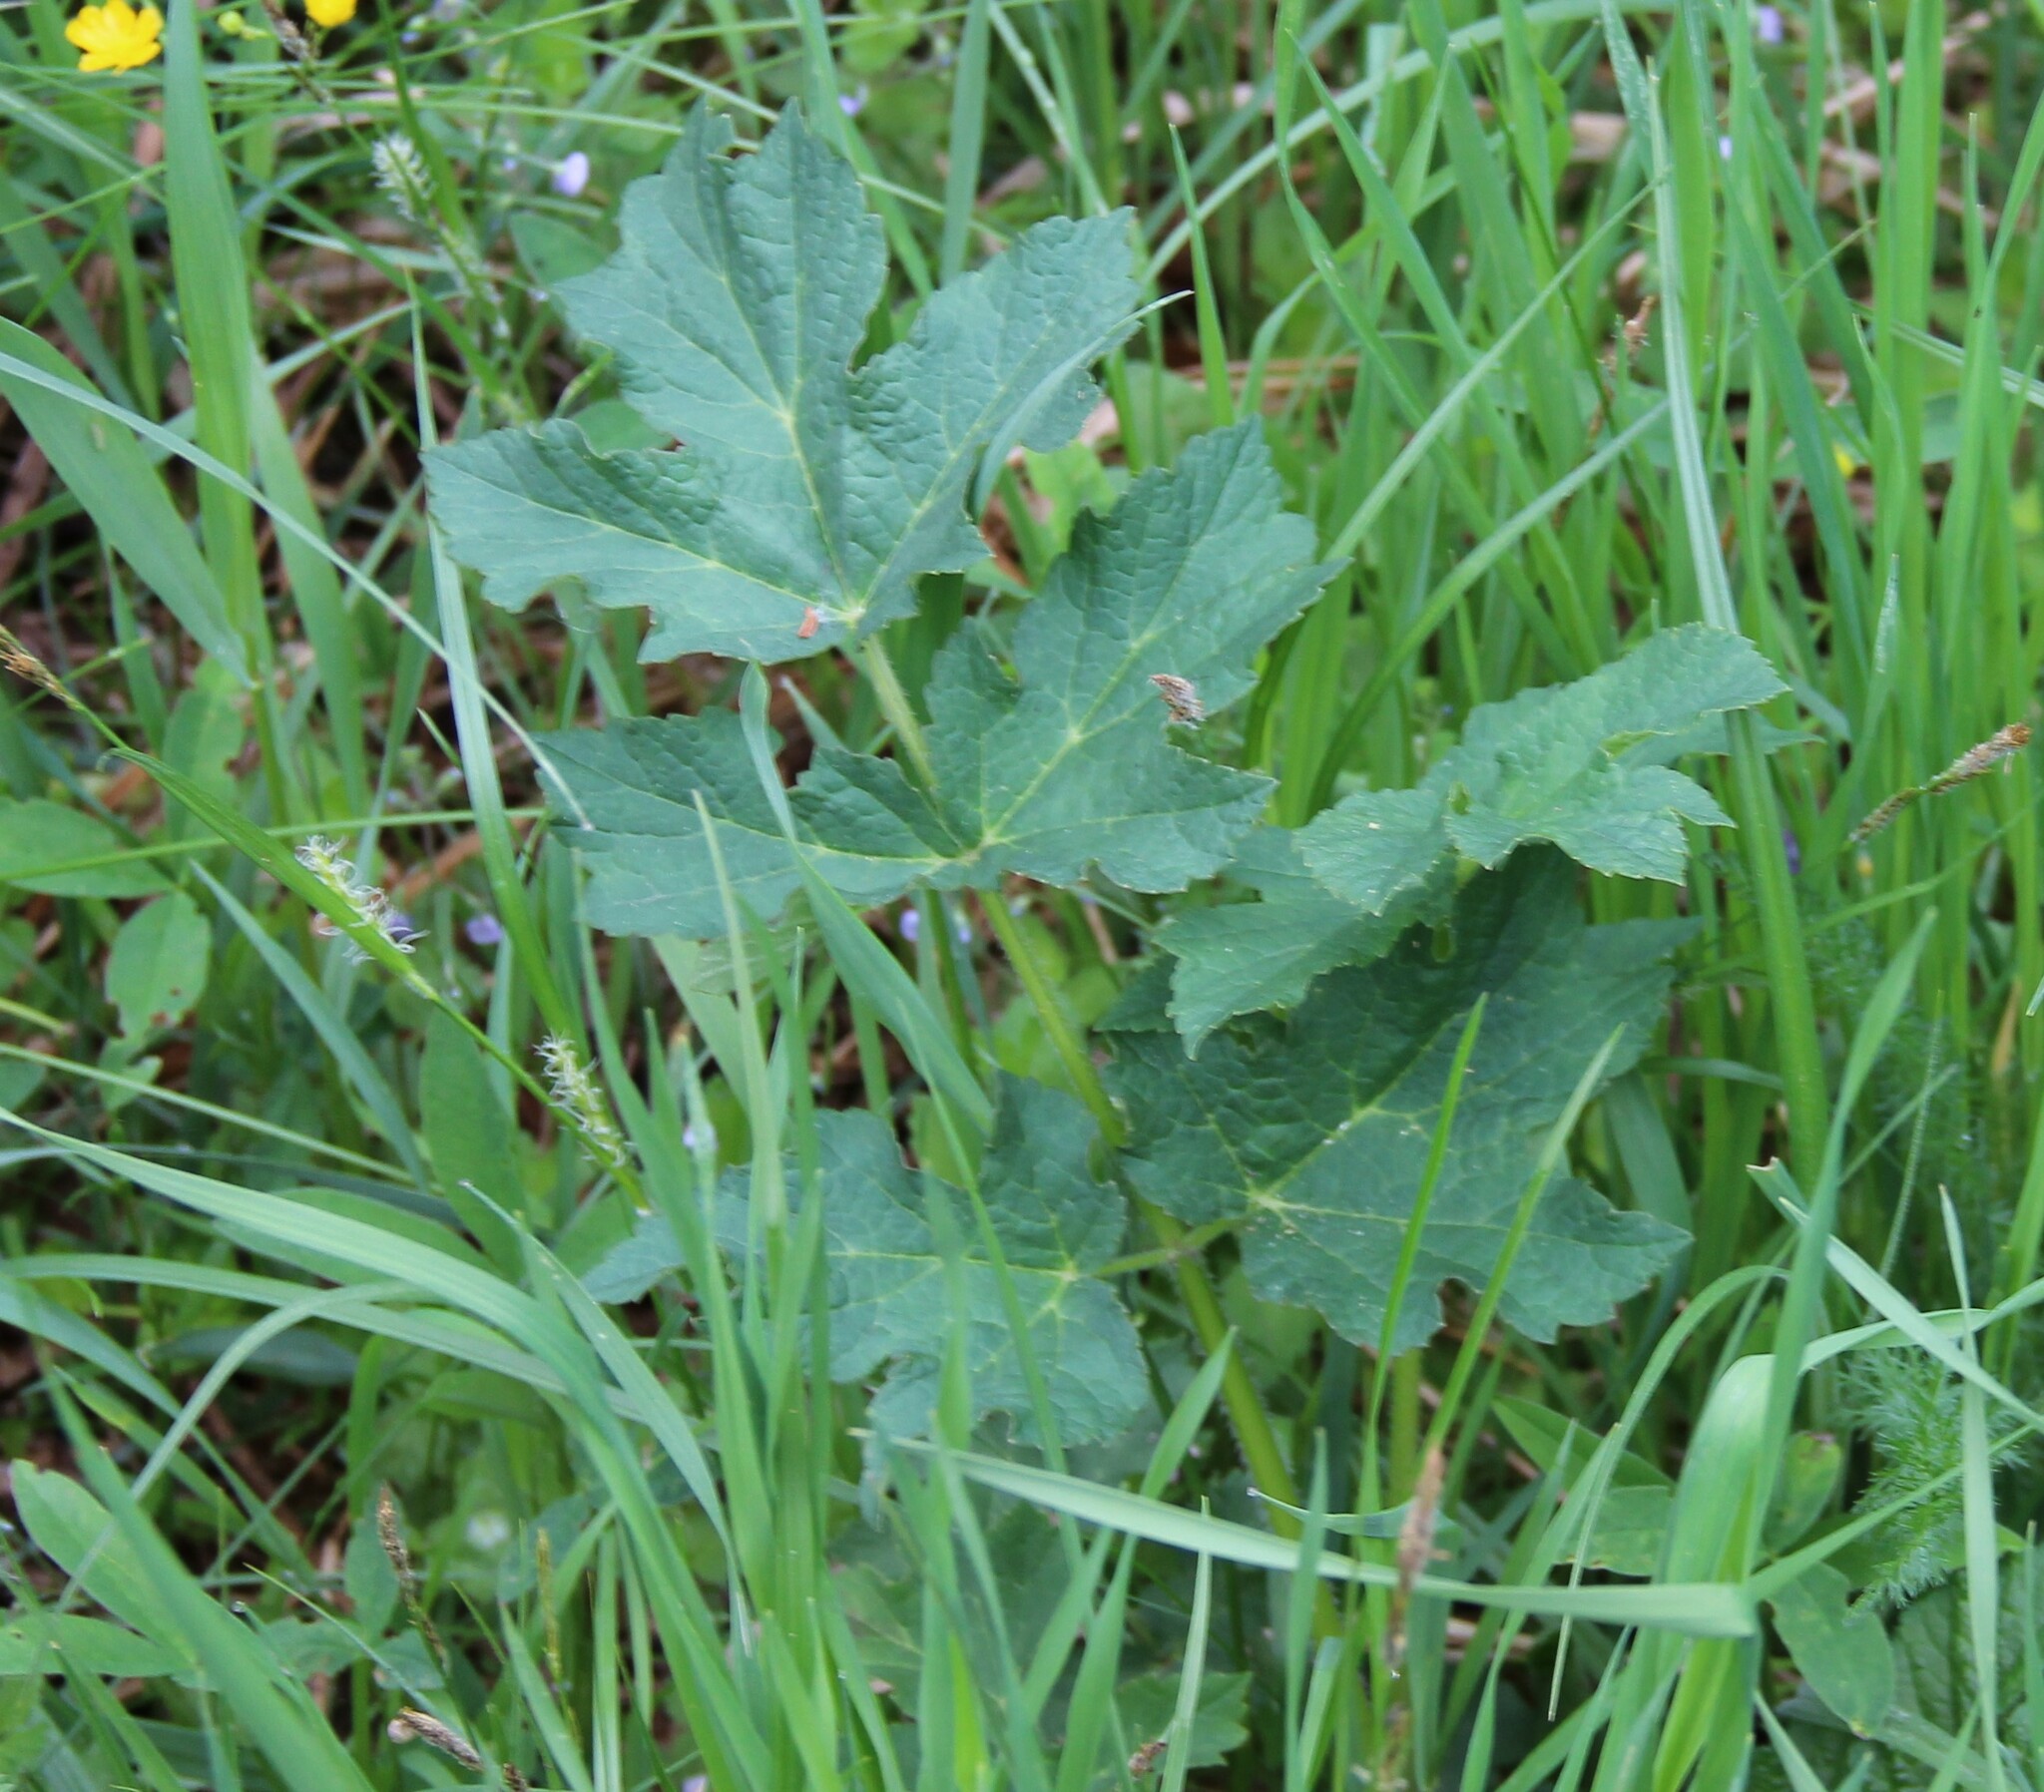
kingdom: Plantae
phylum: Tracheophyta
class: Magnoliopsida
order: Apiales
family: Apiaceae
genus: Heracleum
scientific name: Heracleum sphondylium
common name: Hogweed
